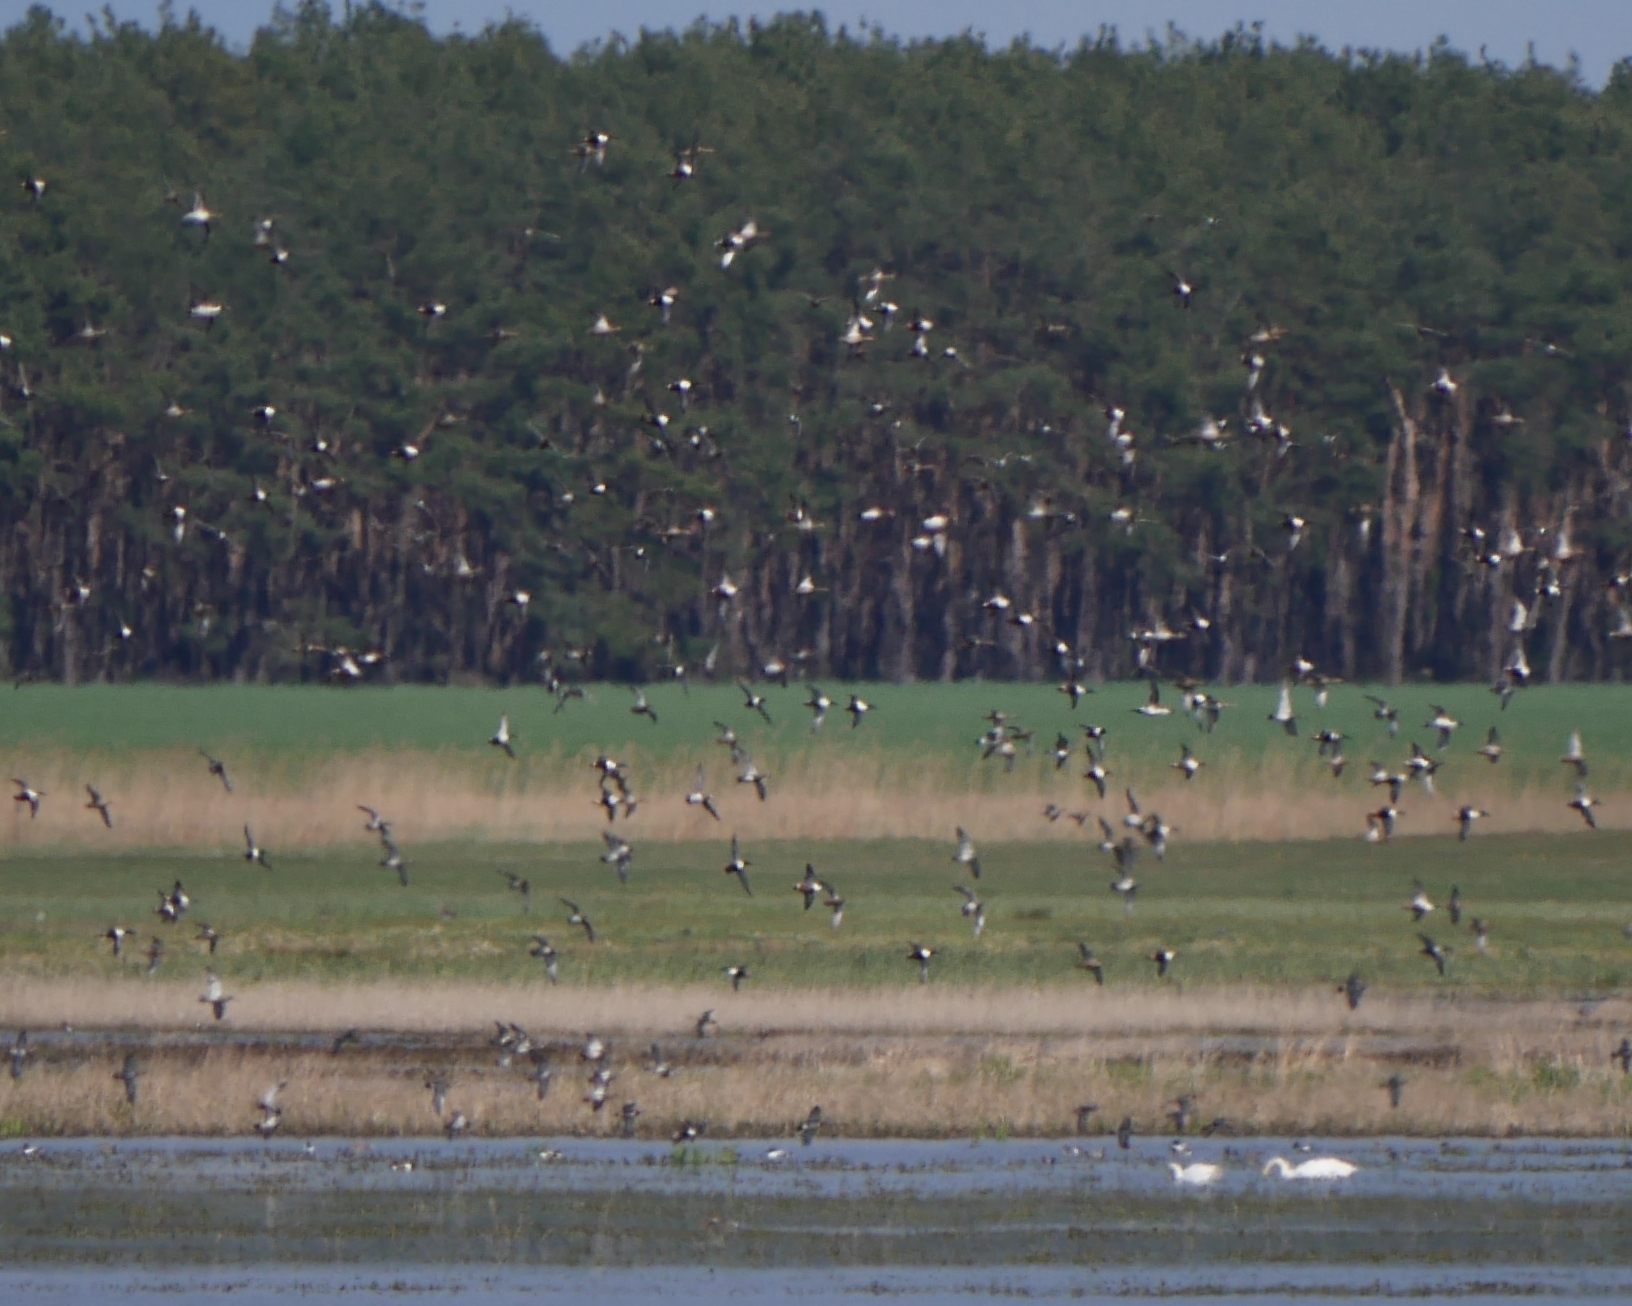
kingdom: Animalia
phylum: Chordata
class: Aves
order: Anseriformes
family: Anatidae
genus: Spatula
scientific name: Spatula clypeata
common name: Northern shoveler
